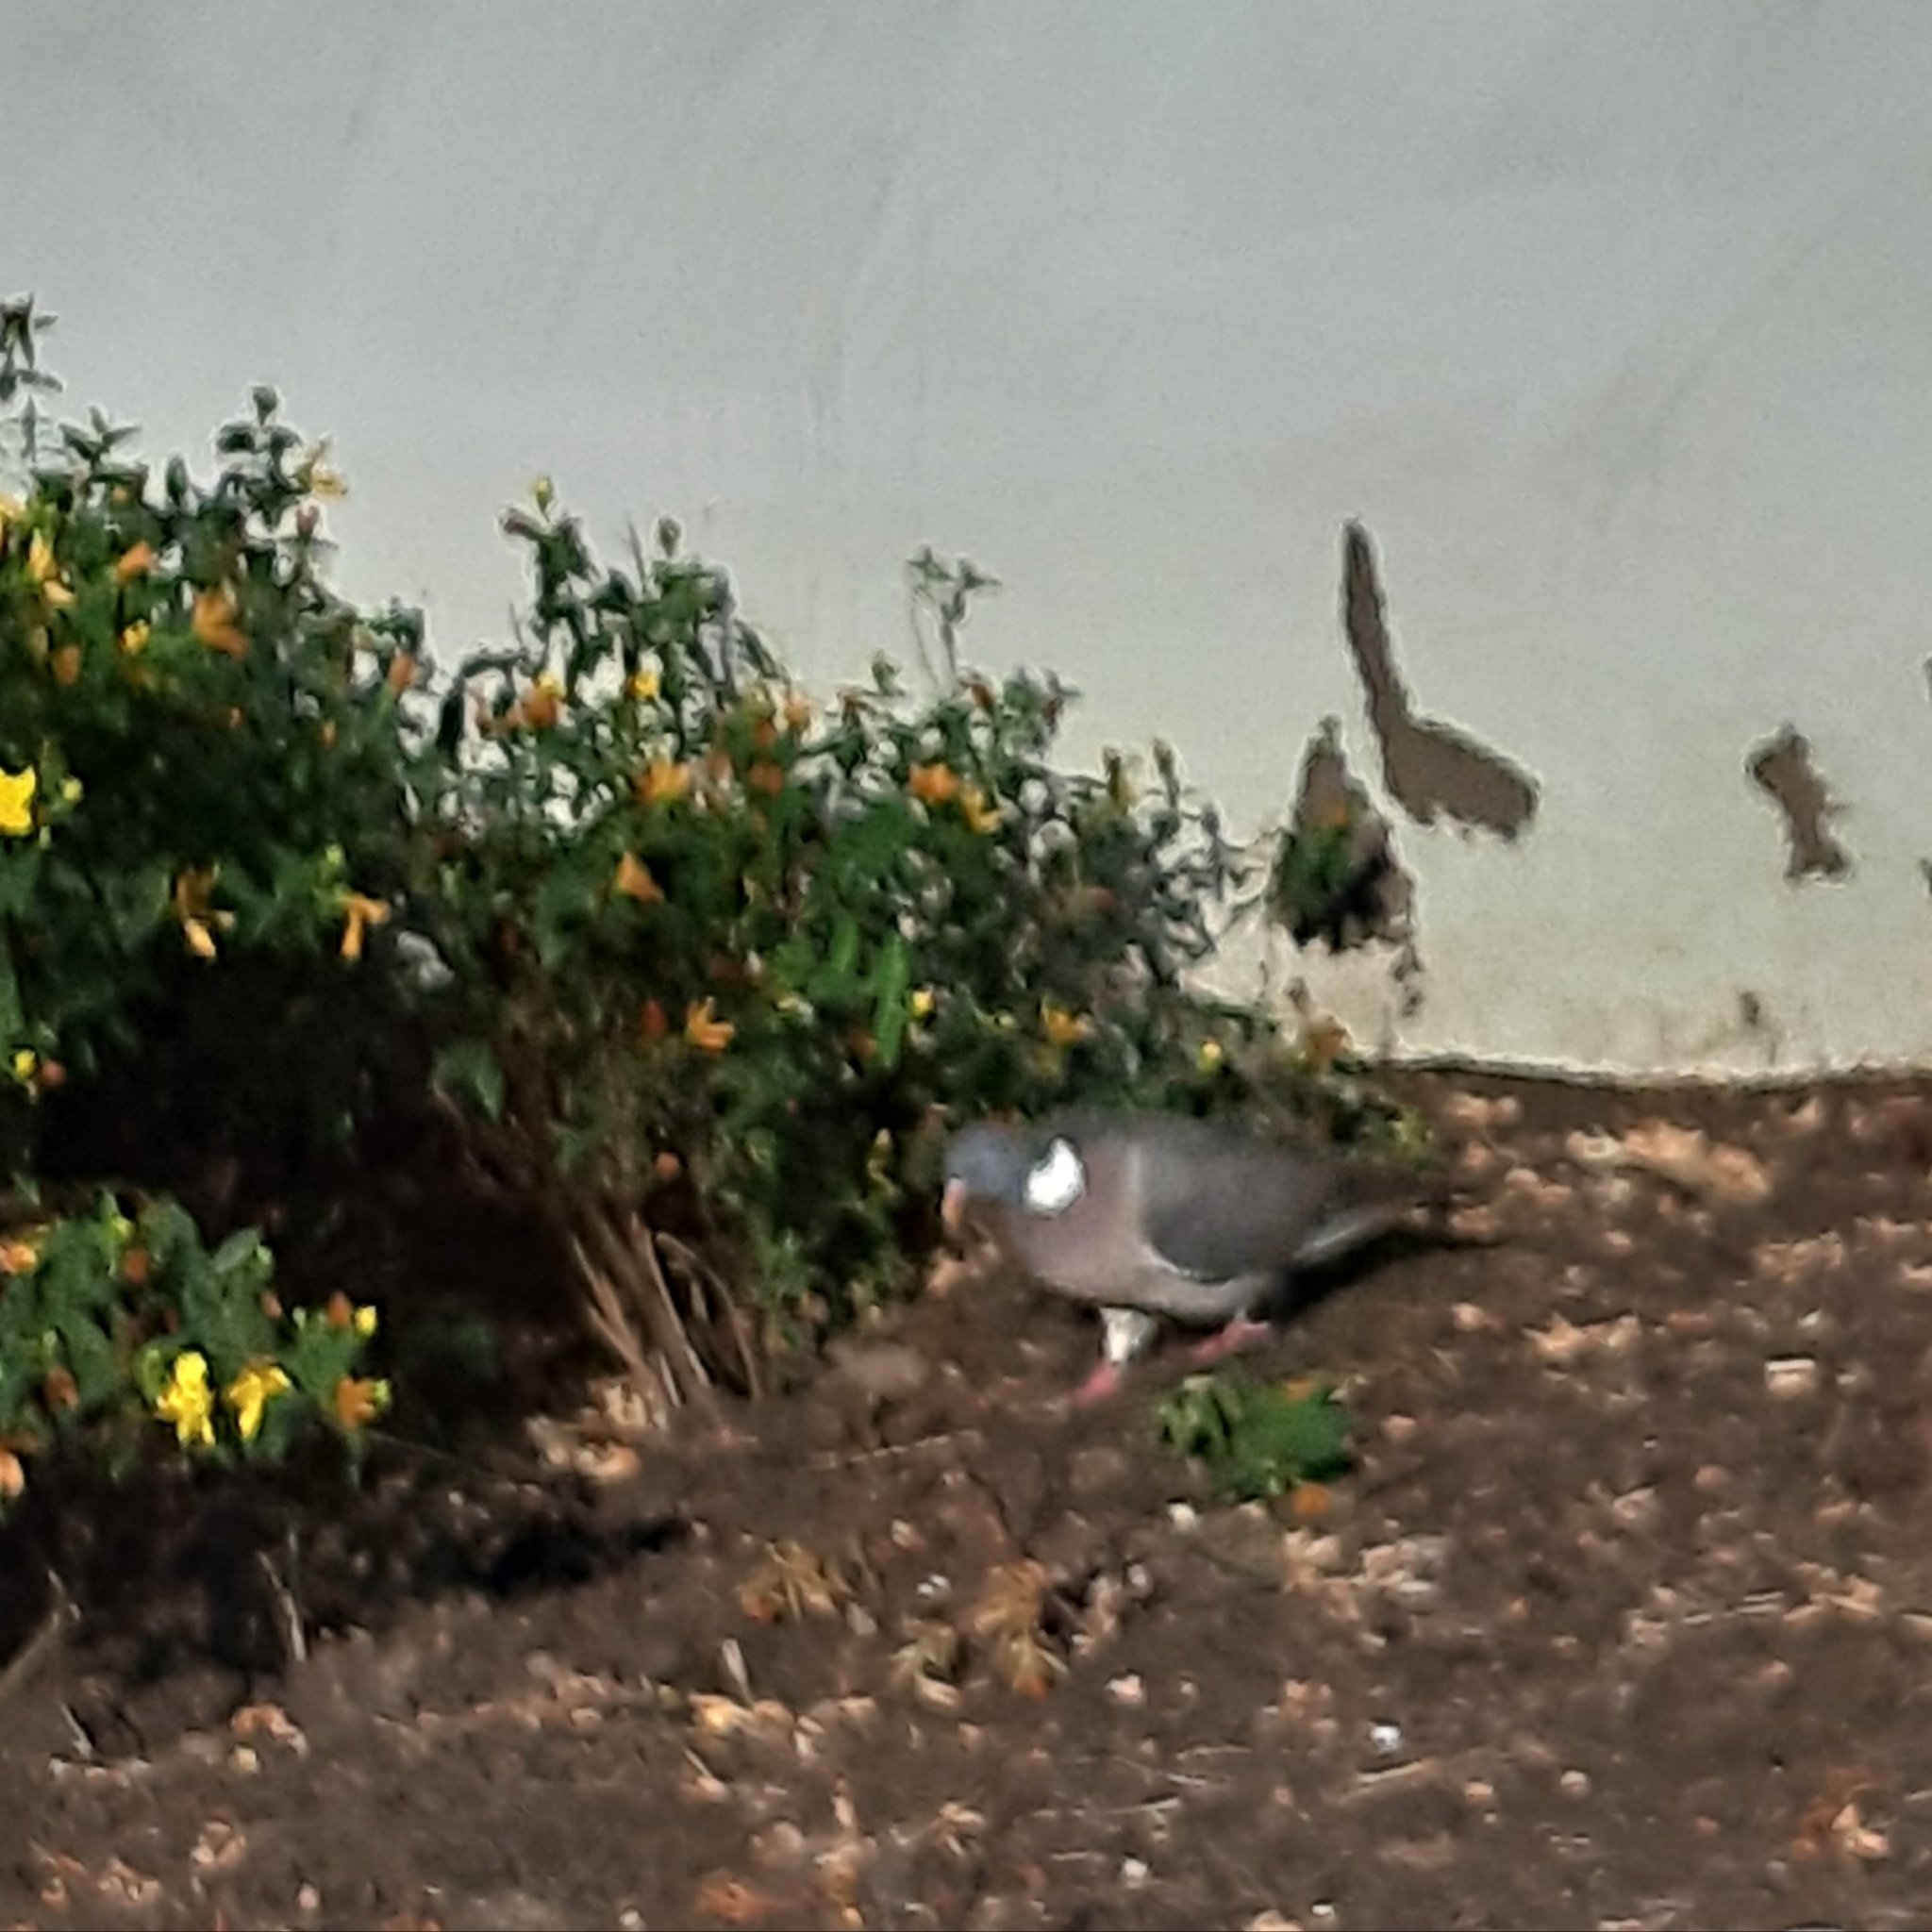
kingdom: Animalia
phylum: Chordata
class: Aves
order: Columbiformes
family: Columbidae
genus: Columba
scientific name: Columba palumbus
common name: Common wood pigeon
